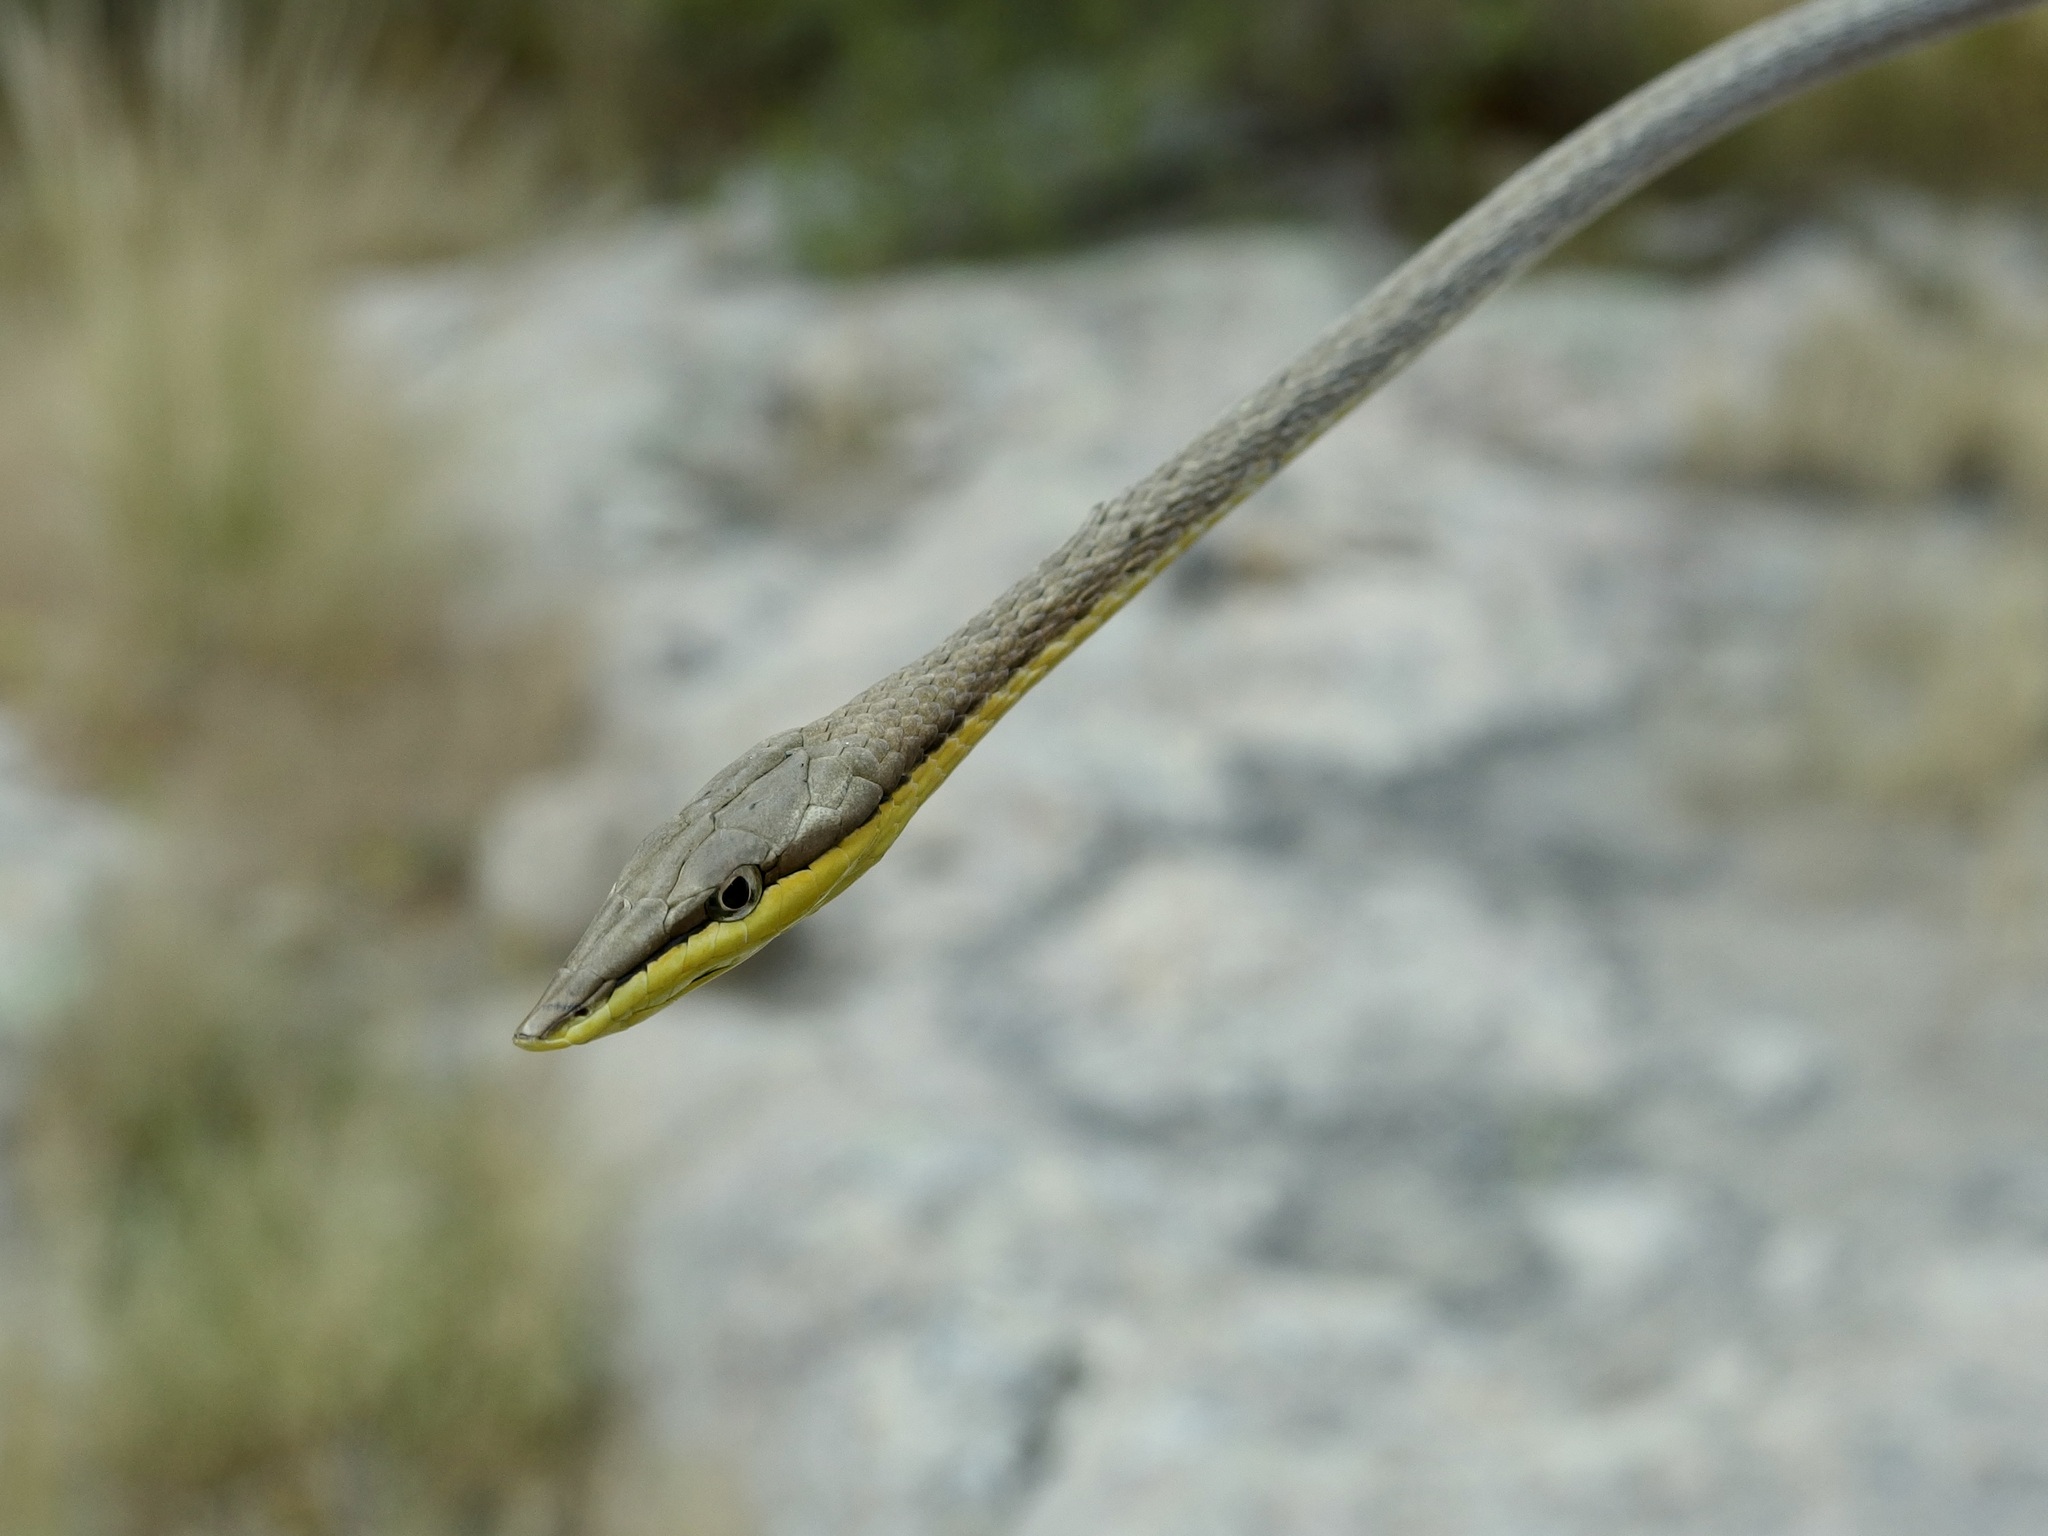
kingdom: Animalia
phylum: Chordata
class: Squamata
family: Colubridae
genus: Oxybelis
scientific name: Oxybelis microphthalmus
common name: Thrornscrub vine snake
